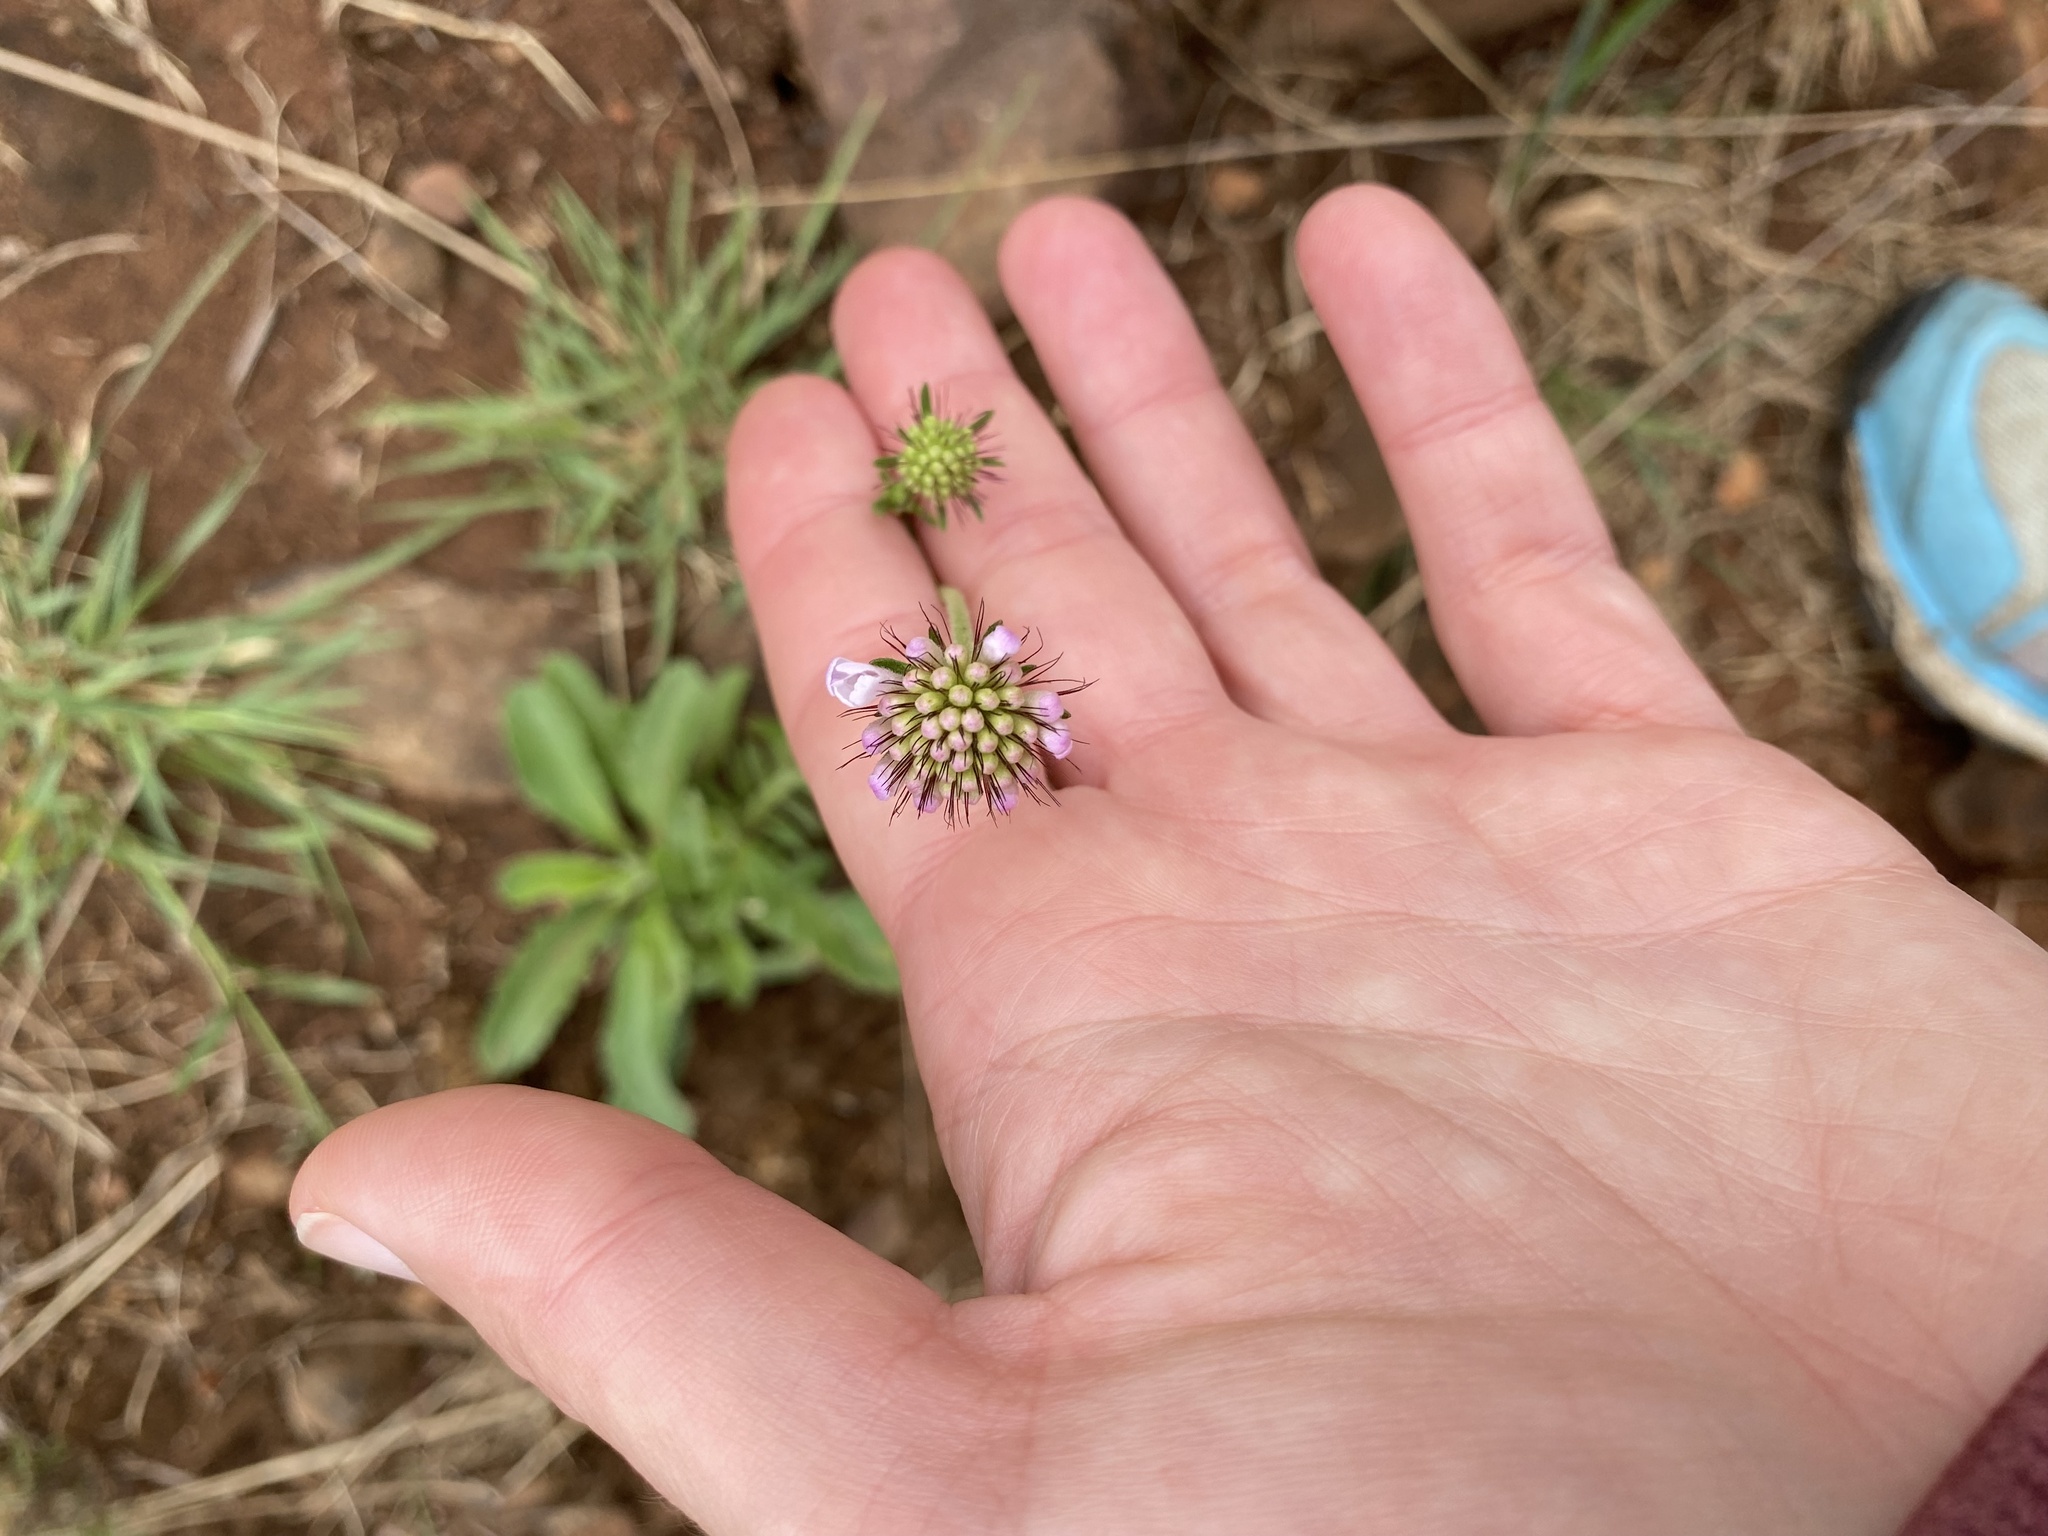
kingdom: Plantae
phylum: Tracheophyta
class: Magnoliopsida
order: Dipsacales
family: Caprifoliaceae
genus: Scabiosa
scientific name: Scabiosa columbaria
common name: Small scabious
